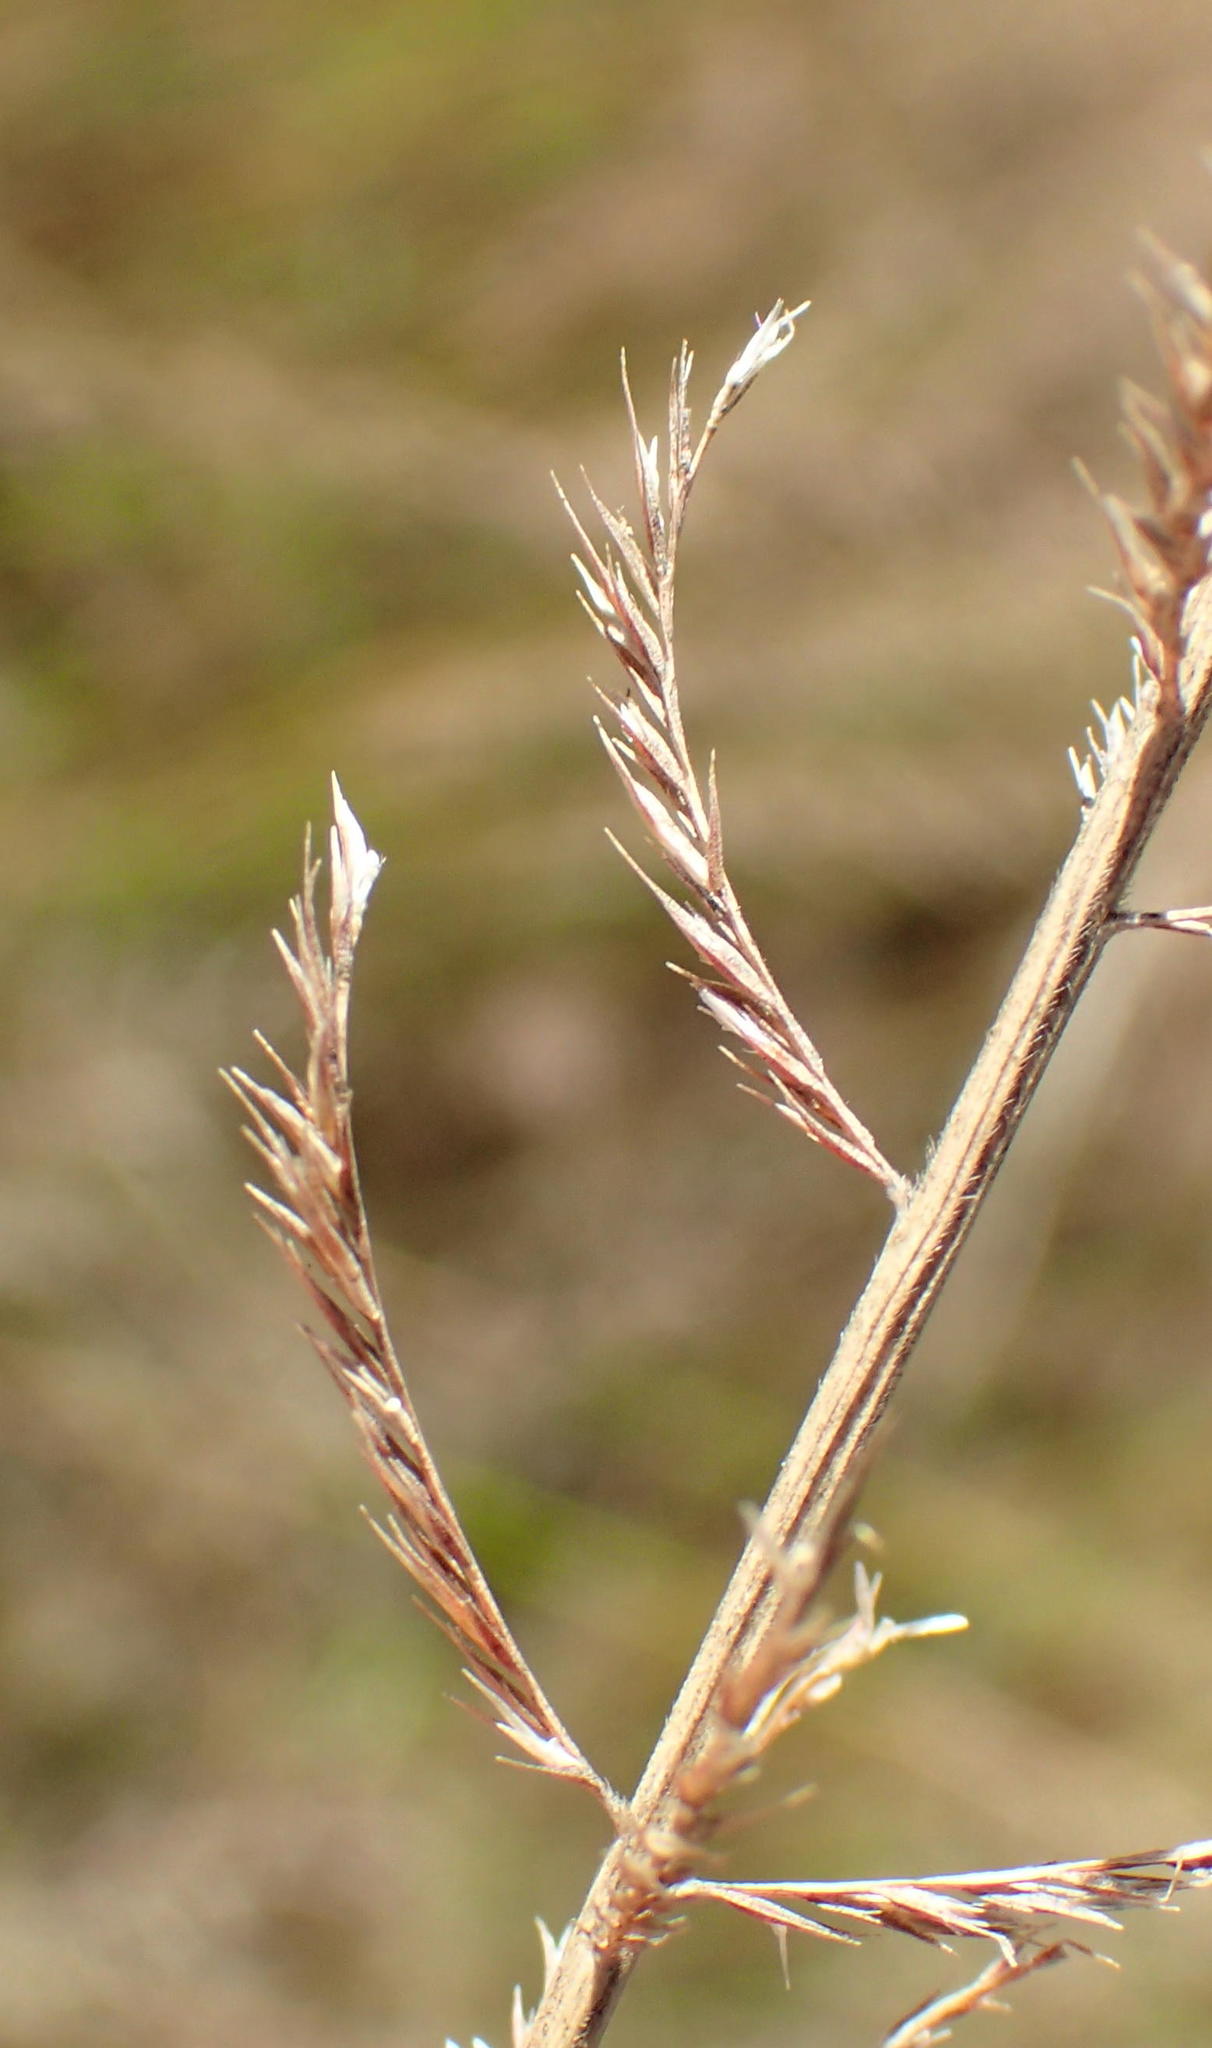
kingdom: Plantae
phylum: Tracheophyta
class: Liliopsida
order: Poales
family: Poaceae
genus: Pogonarthria
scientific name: Pogonarthria squarrosa
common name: Grass
